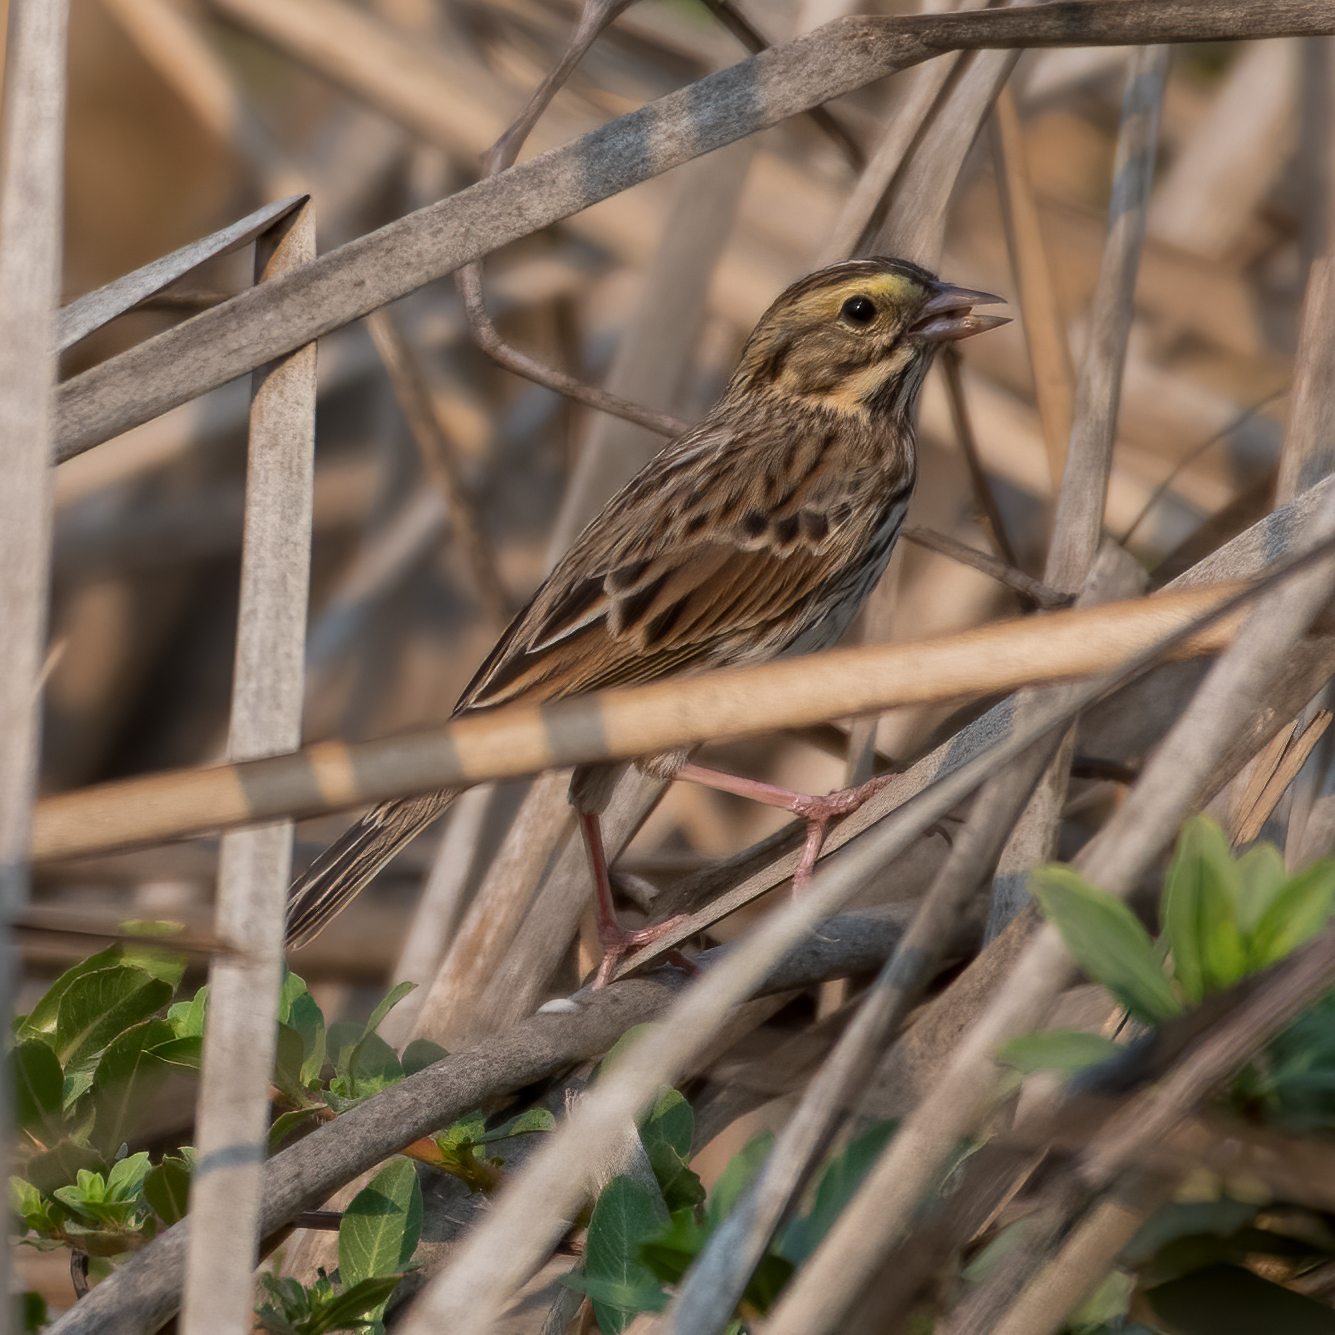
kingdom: Animalia
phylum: Chordata
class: Aves
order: Passeriformes
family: Passerellidae
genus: Passerculus
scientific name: Passerculus sandwichensis
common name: Savannah sparrow
